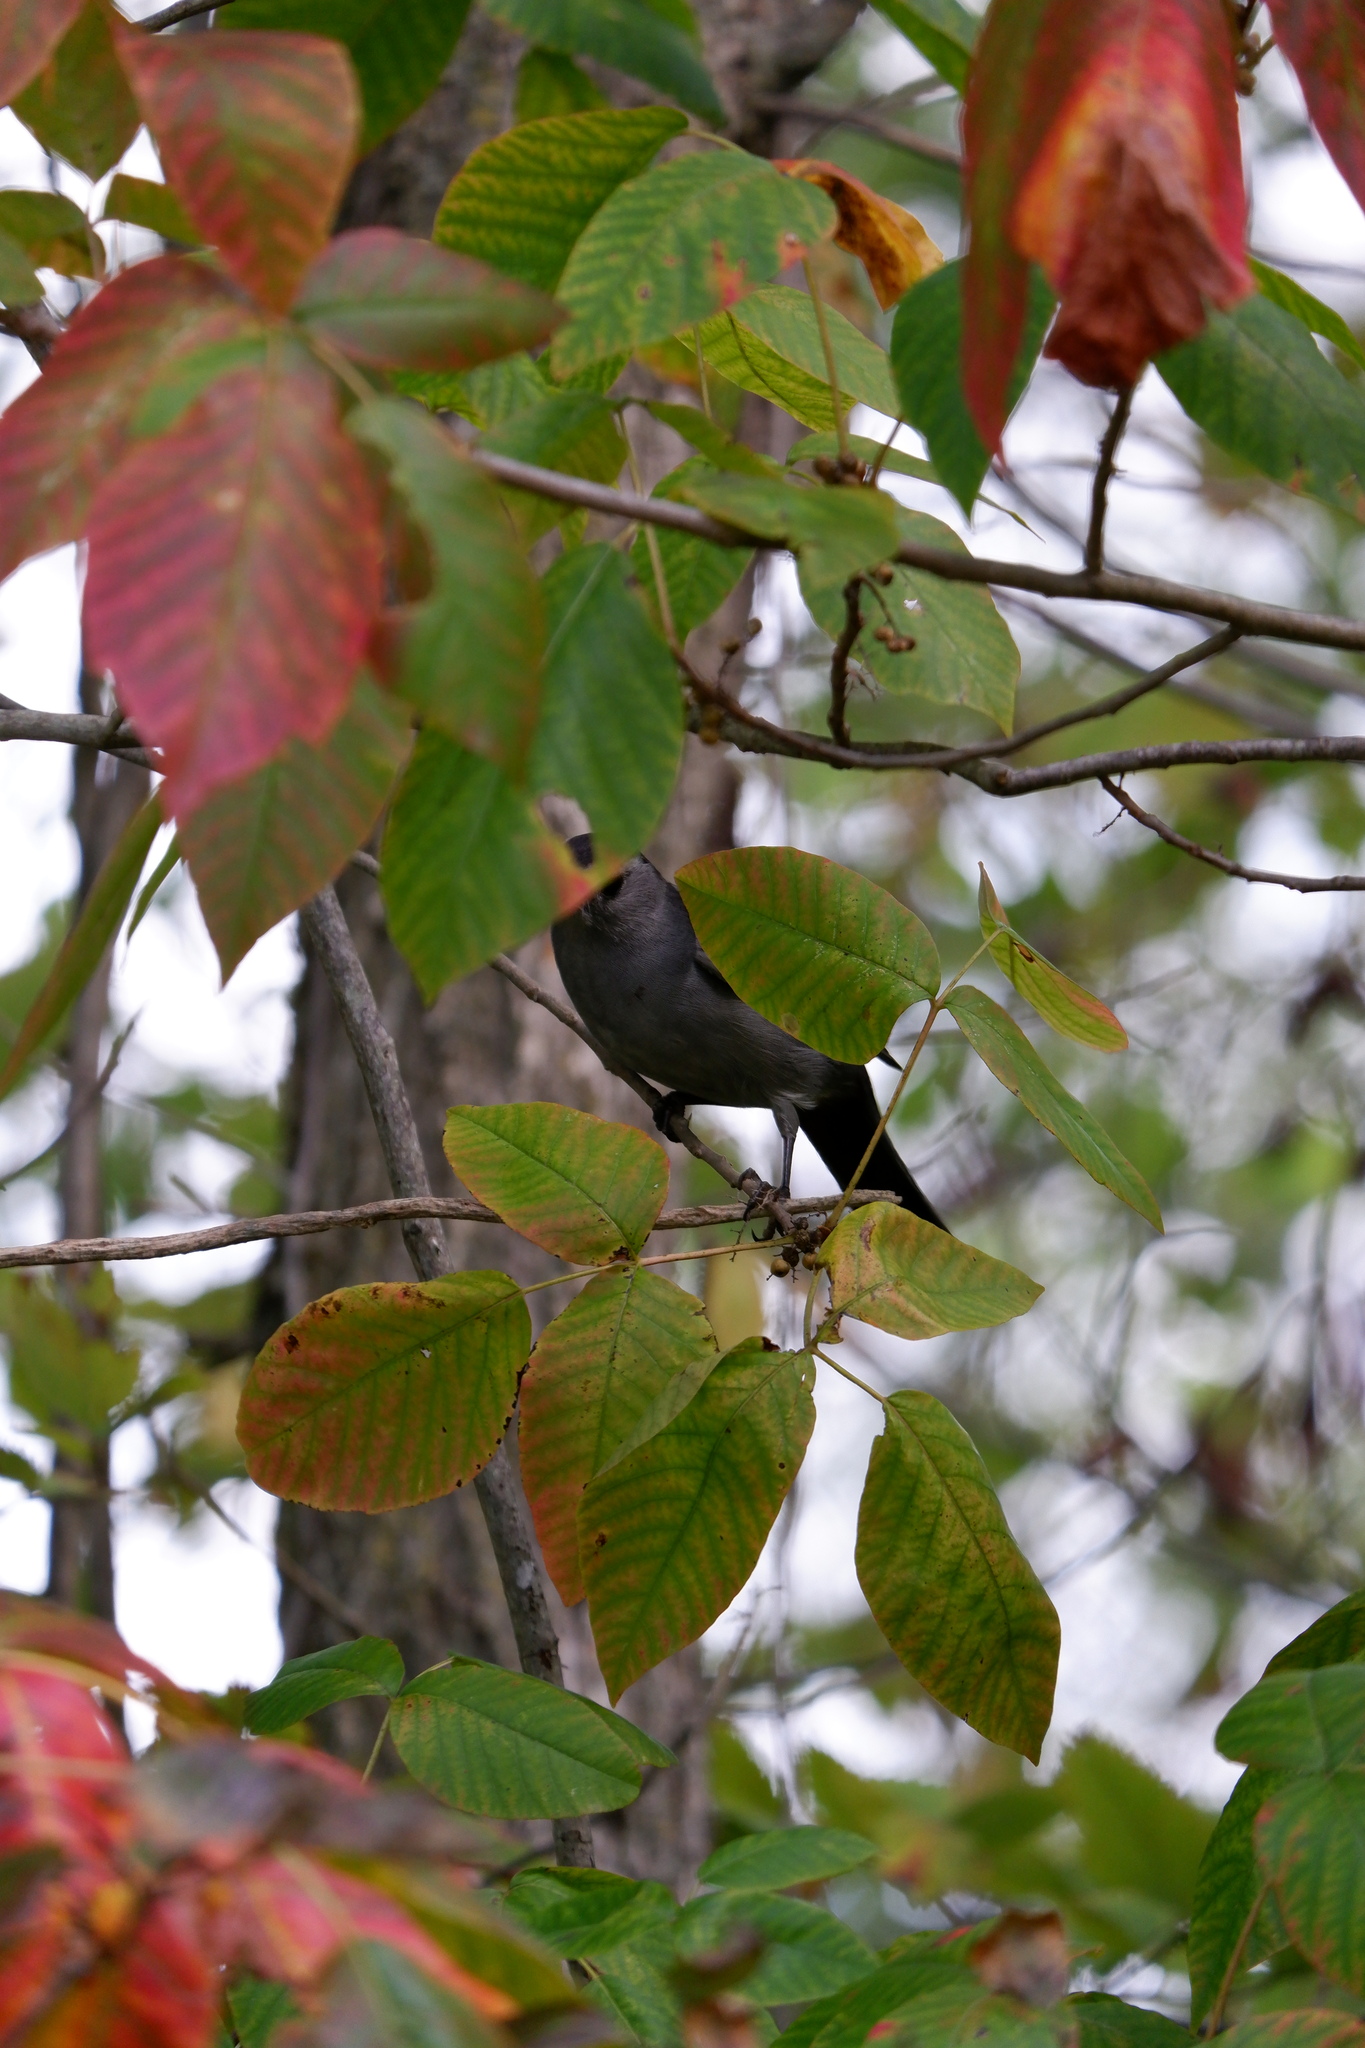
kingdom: Animalia
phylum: Chordata
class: Aves
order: Passeriformes
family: Mimidae
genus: Dumetella
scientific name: Dumetella carolinensis
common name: Gray catbird
